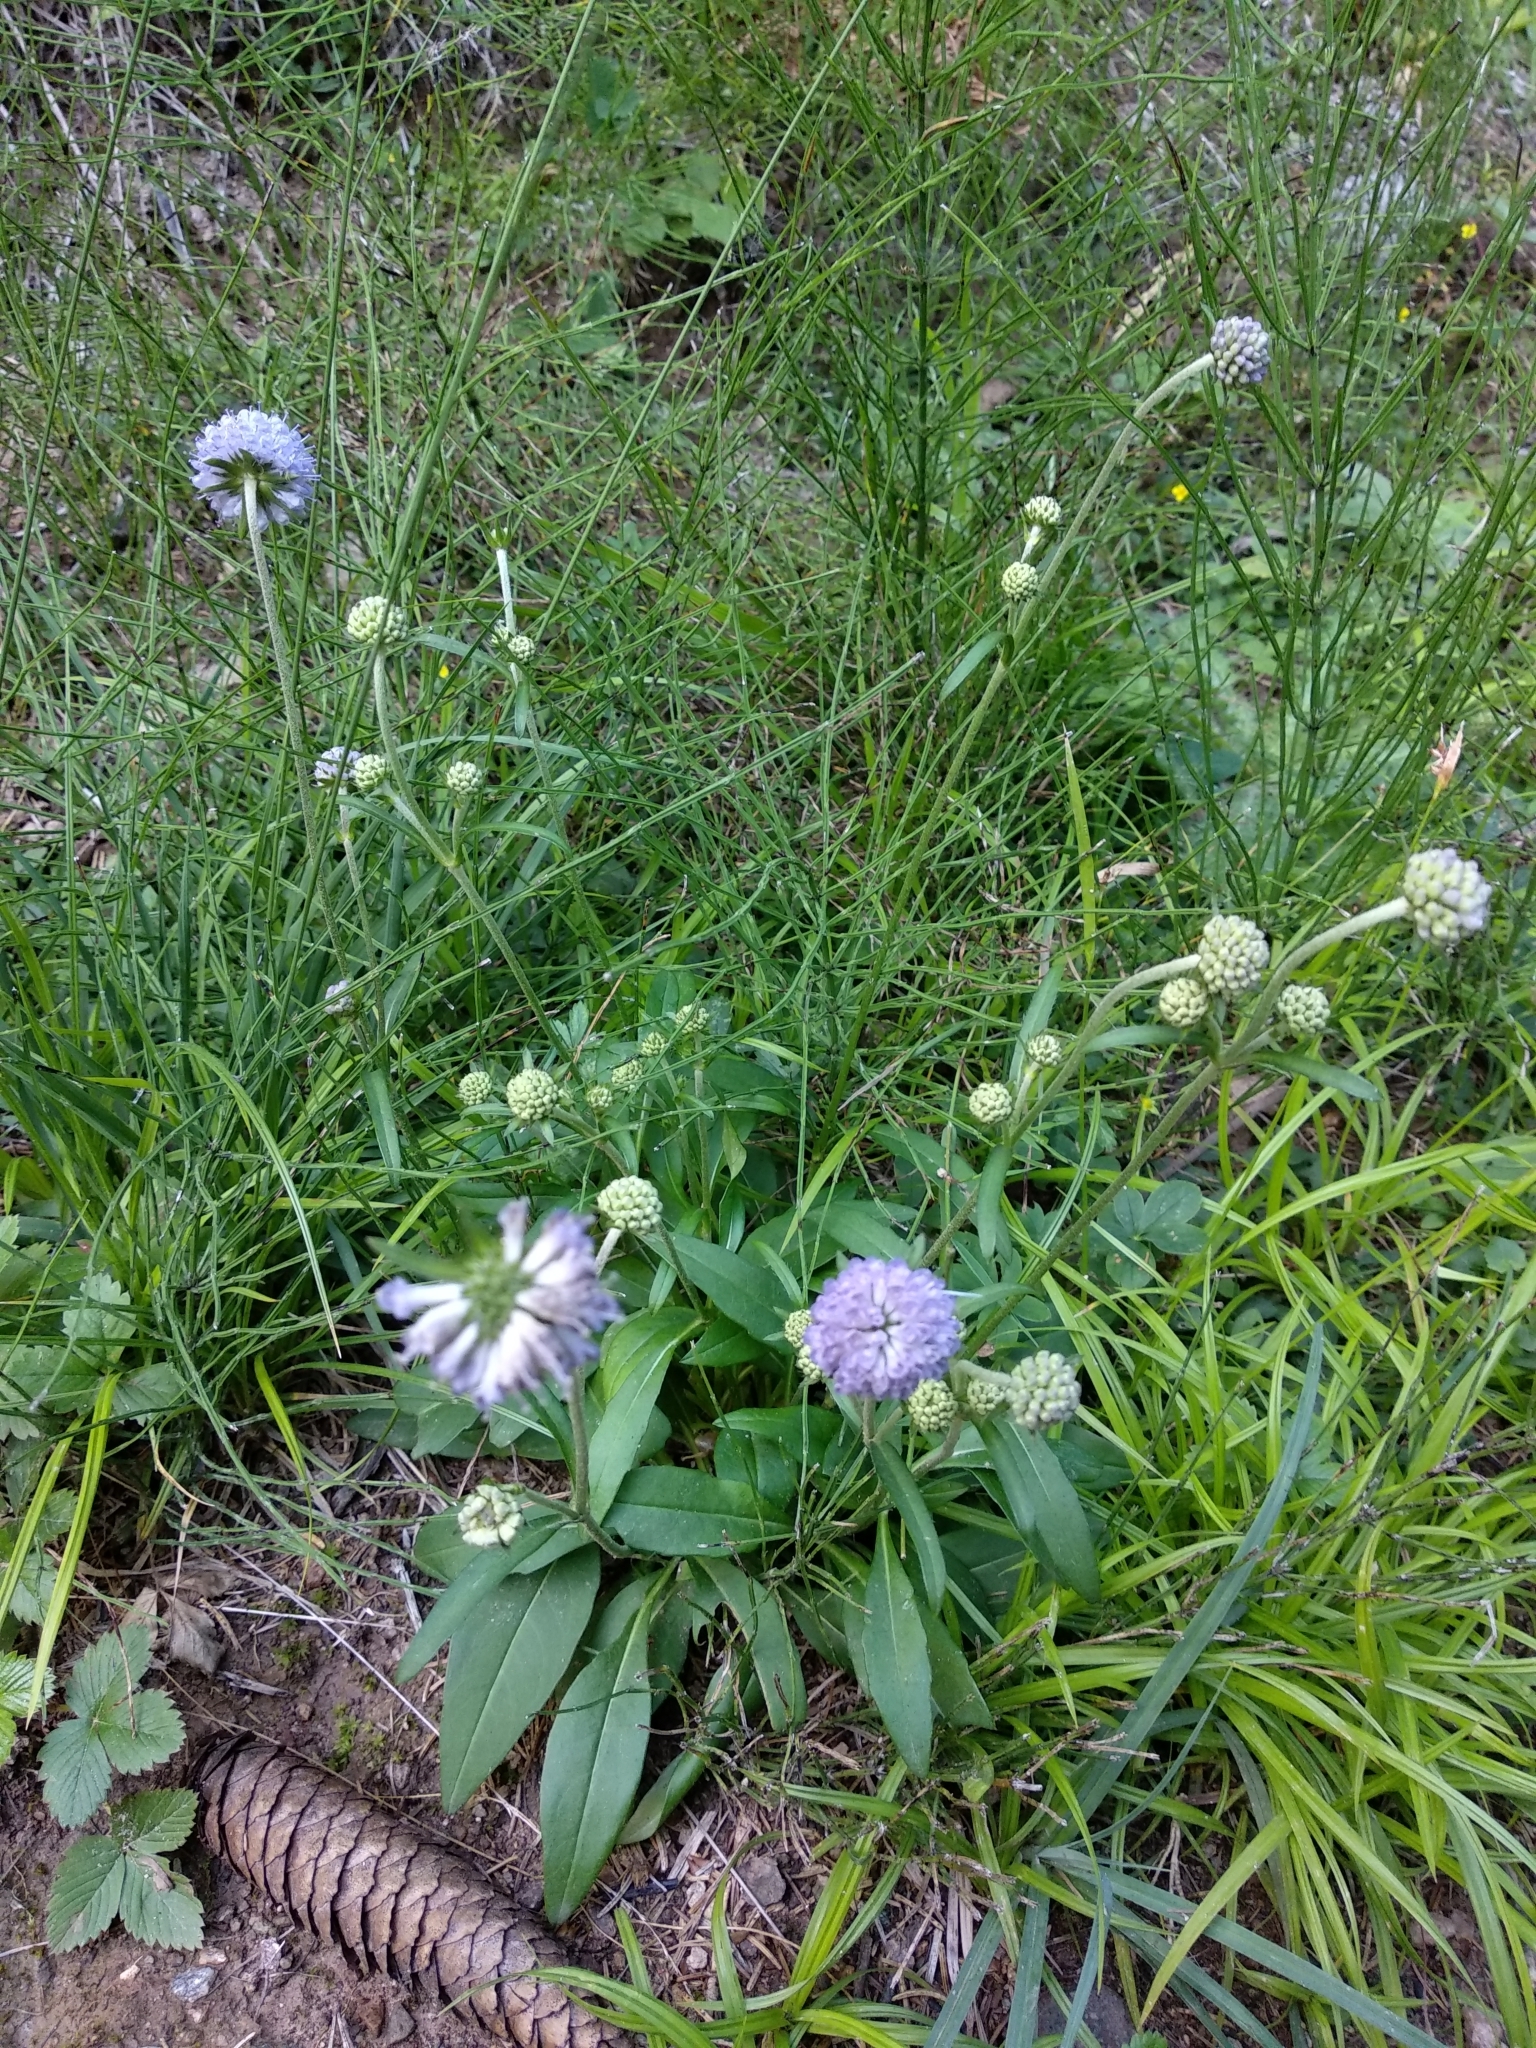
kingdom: Plantae
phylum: Tracheophyta
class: Magnoliopsida
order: Dipsacales
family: Caprifoliaceae
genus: Succisa
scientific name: Succisa pratensis
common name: Devil's-bit
